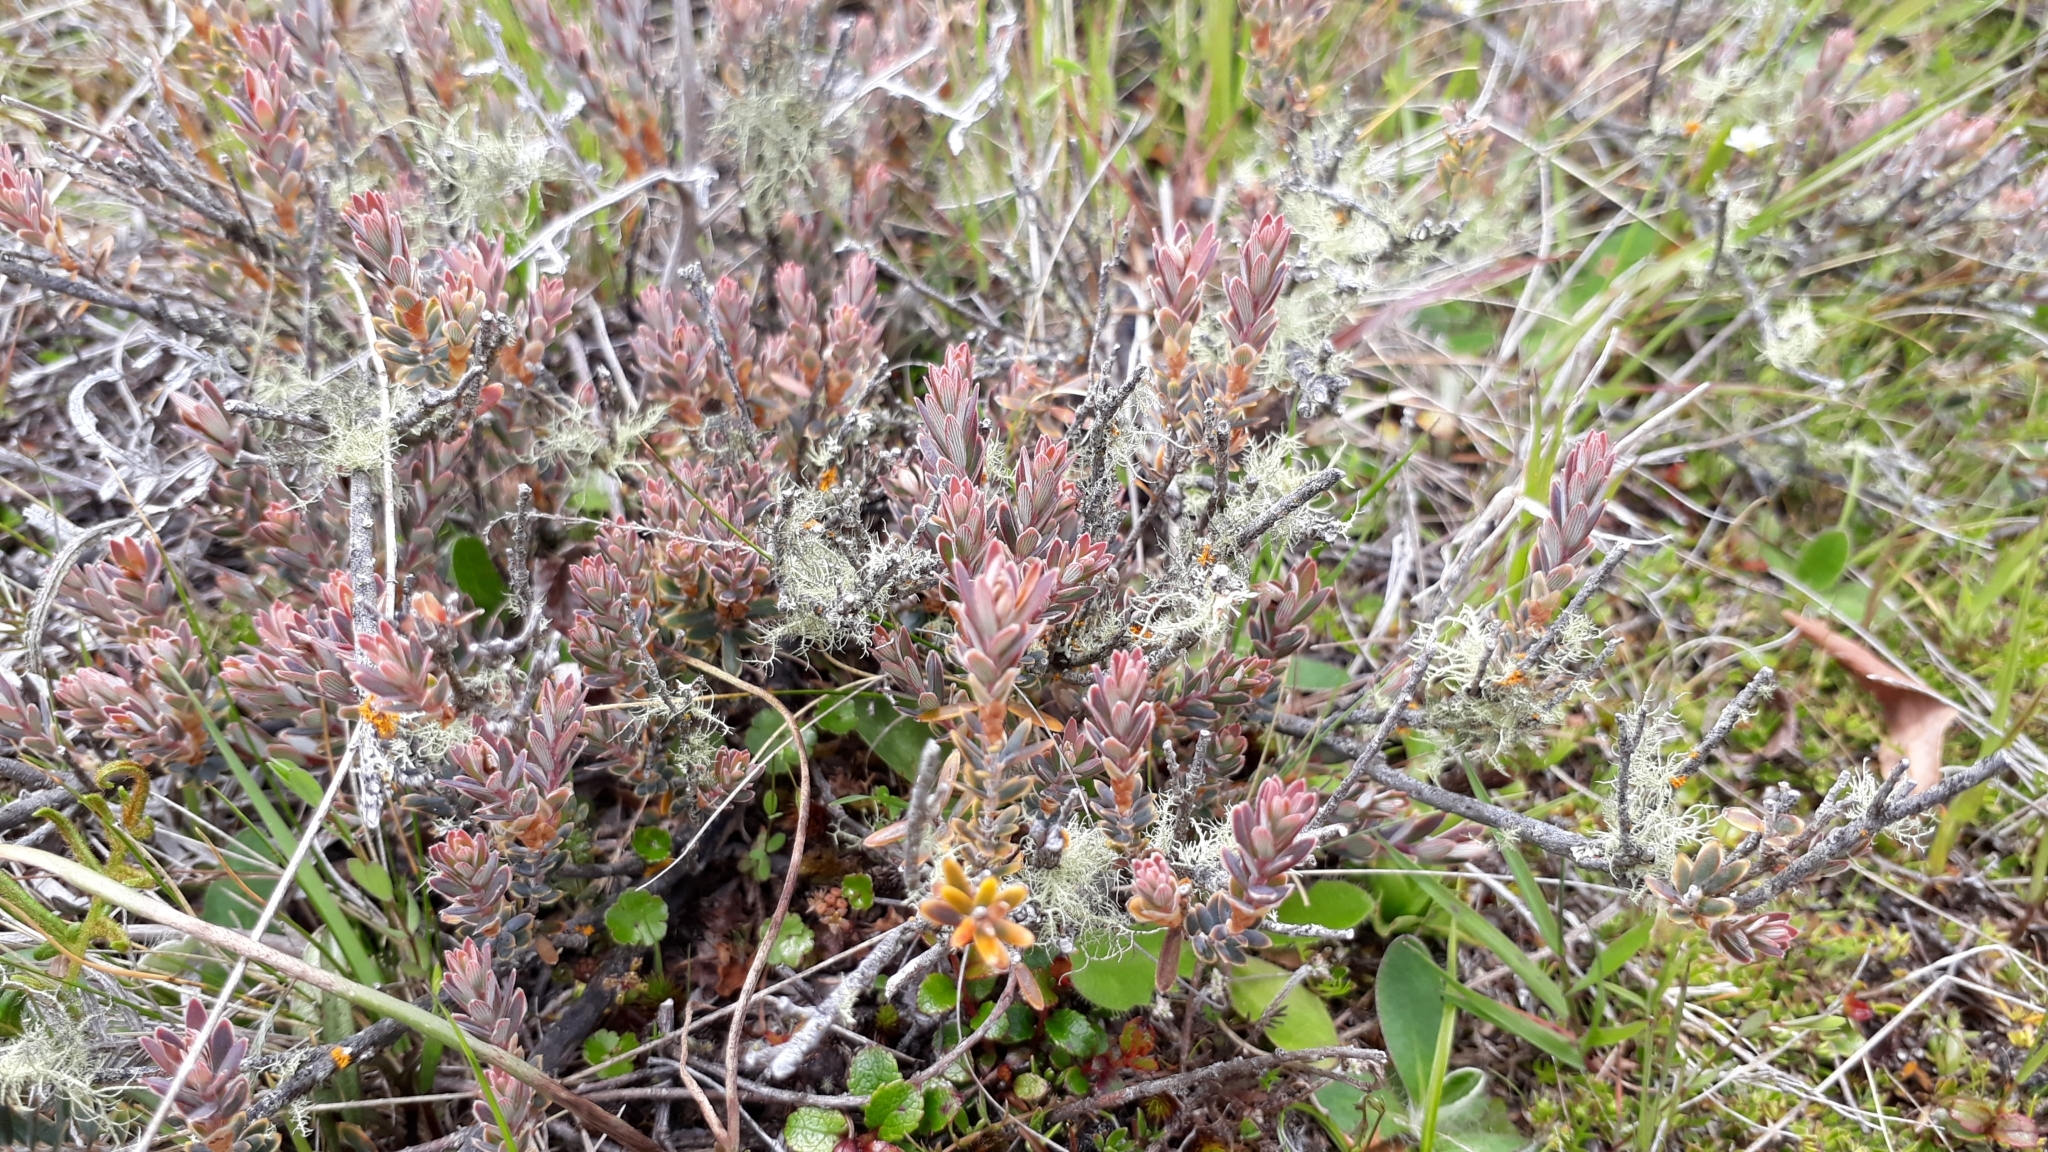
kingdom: Plantae
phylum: Tracheophyta
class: Magnoliopsida
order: Ericales
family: Ericaceae
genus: Acrothamnus
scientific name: Acrothamnus colensoi
